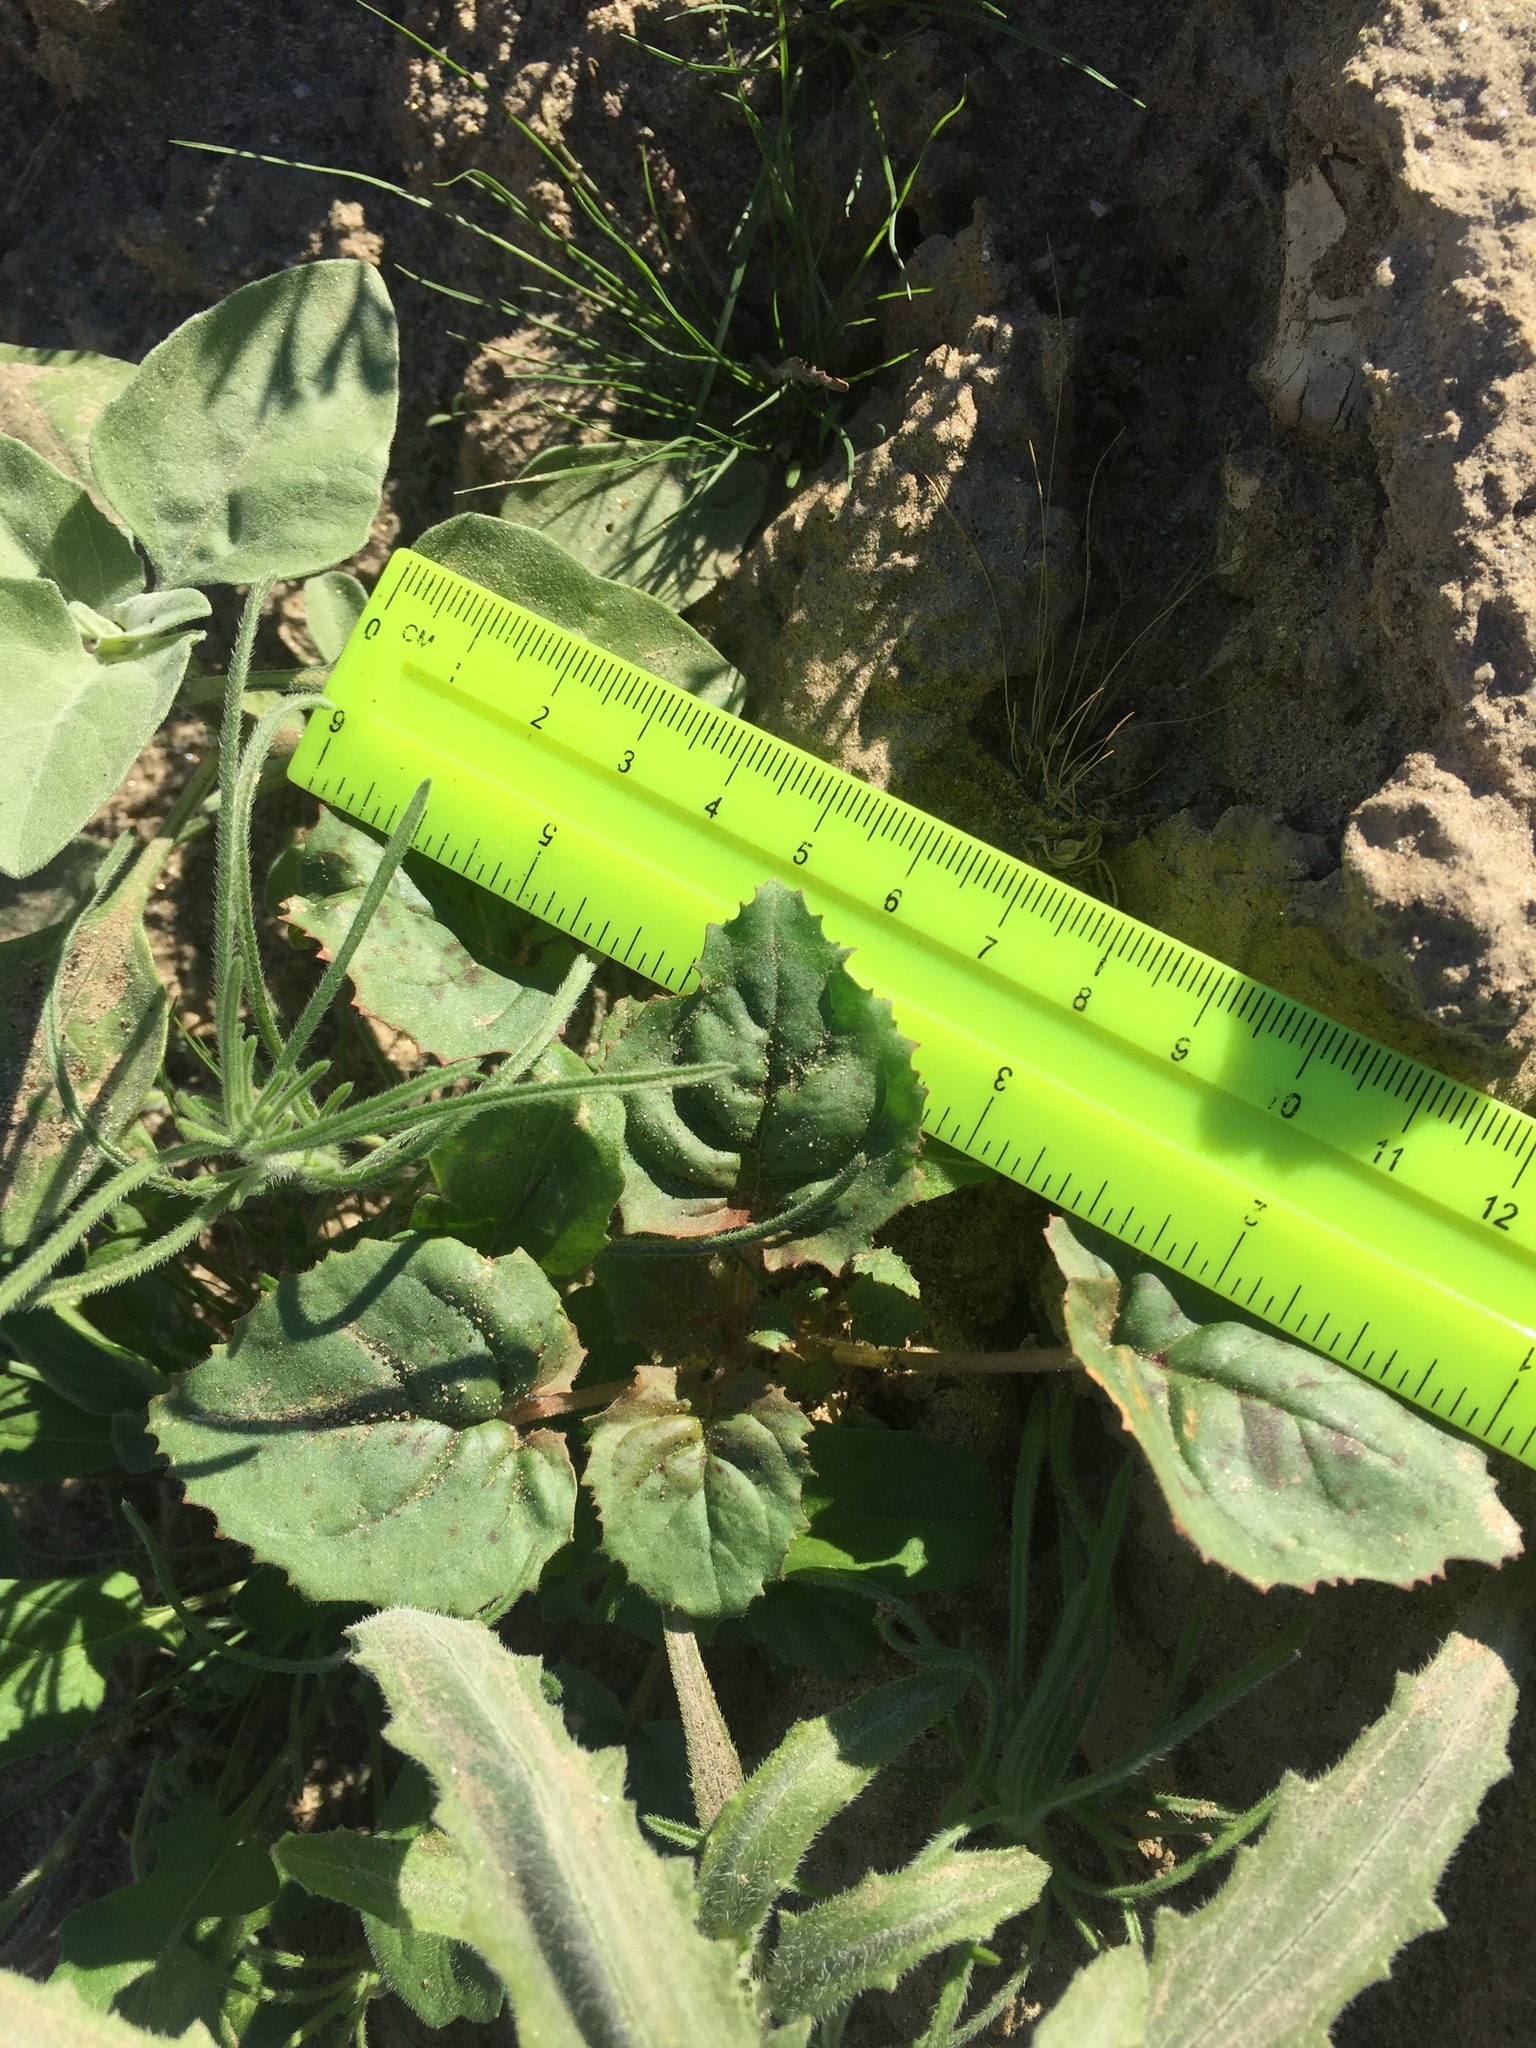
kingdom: Plantae
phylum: Tracheophyta
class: Magnoliopsida
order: Myrtales
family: Onagraceae
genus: Chylismia
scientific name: Chylismia cardiophylla
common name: Heartleaf suncup
